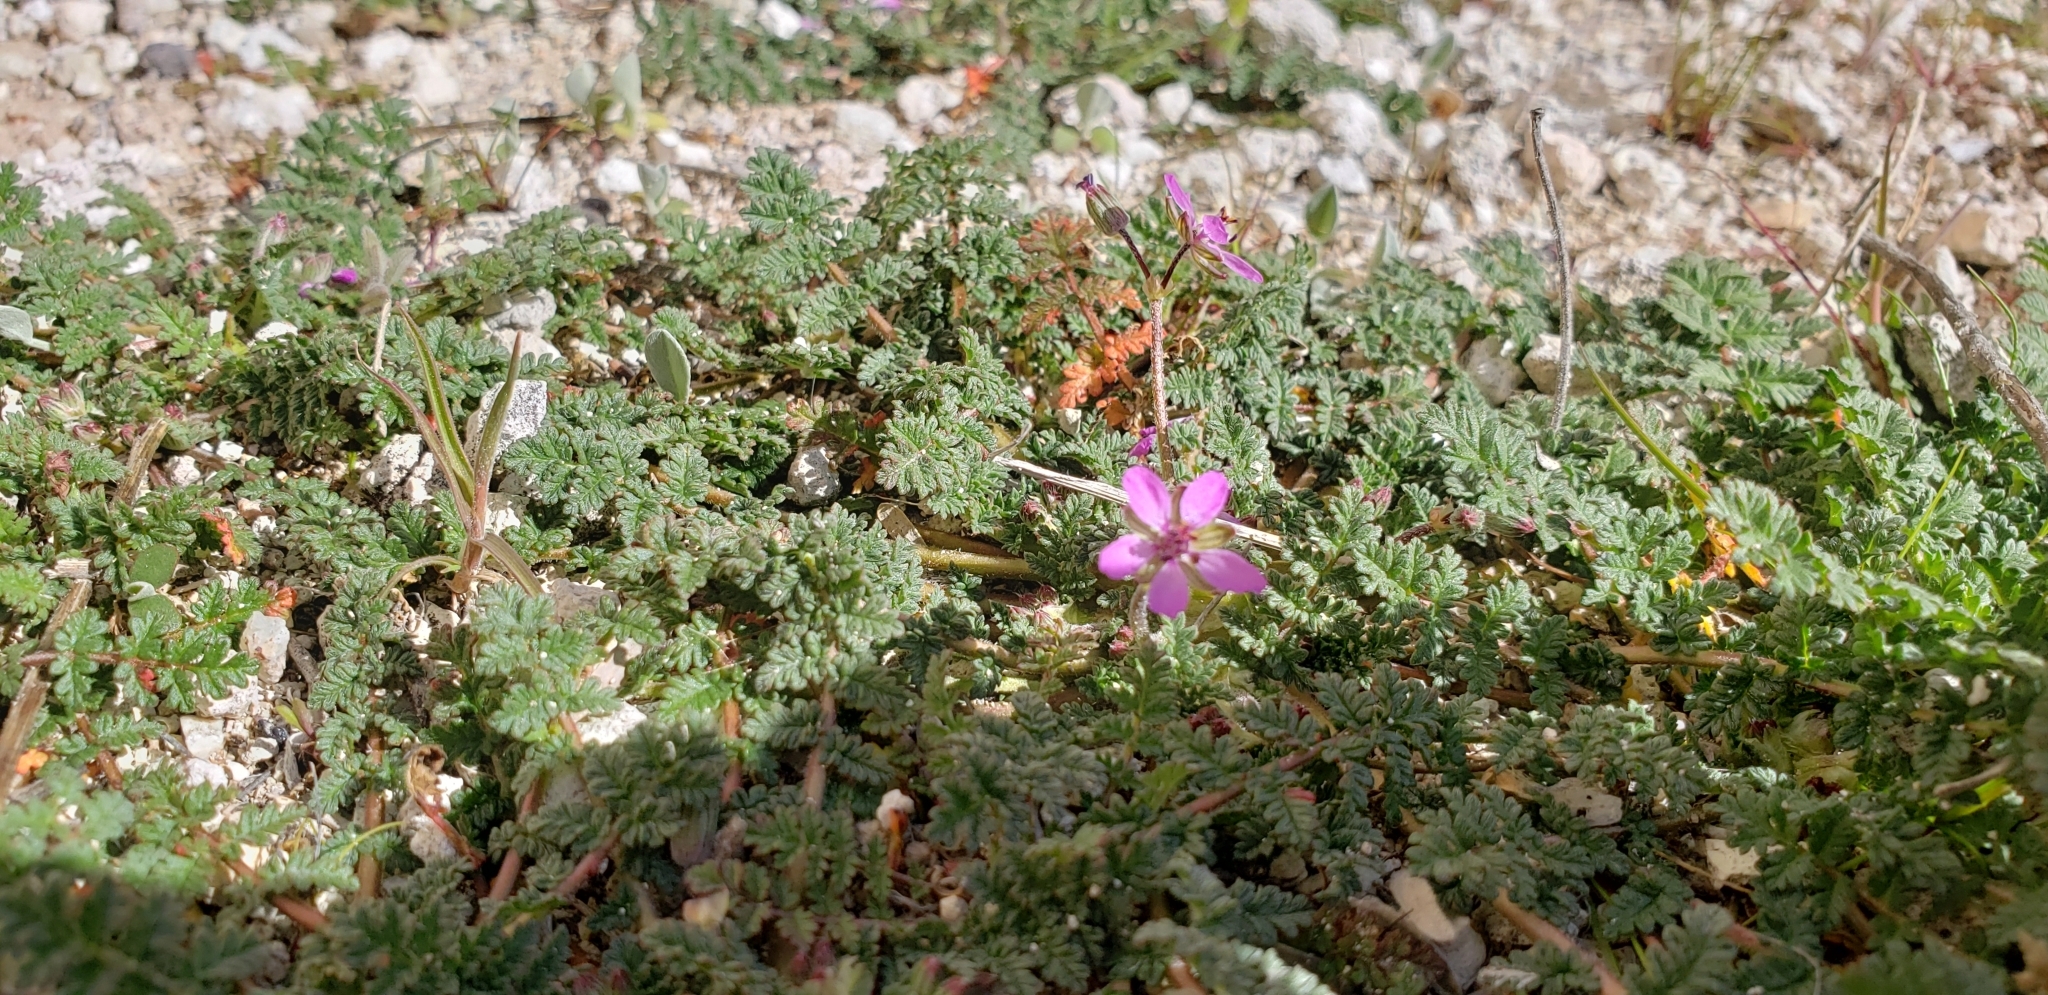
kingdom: Plantae
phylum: Tracheophyta
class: Magnoliopsida
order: Geraniales
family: Geraniaceae
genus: Erodium
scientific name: Erodium cicutarium
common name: Common stork's-bill
